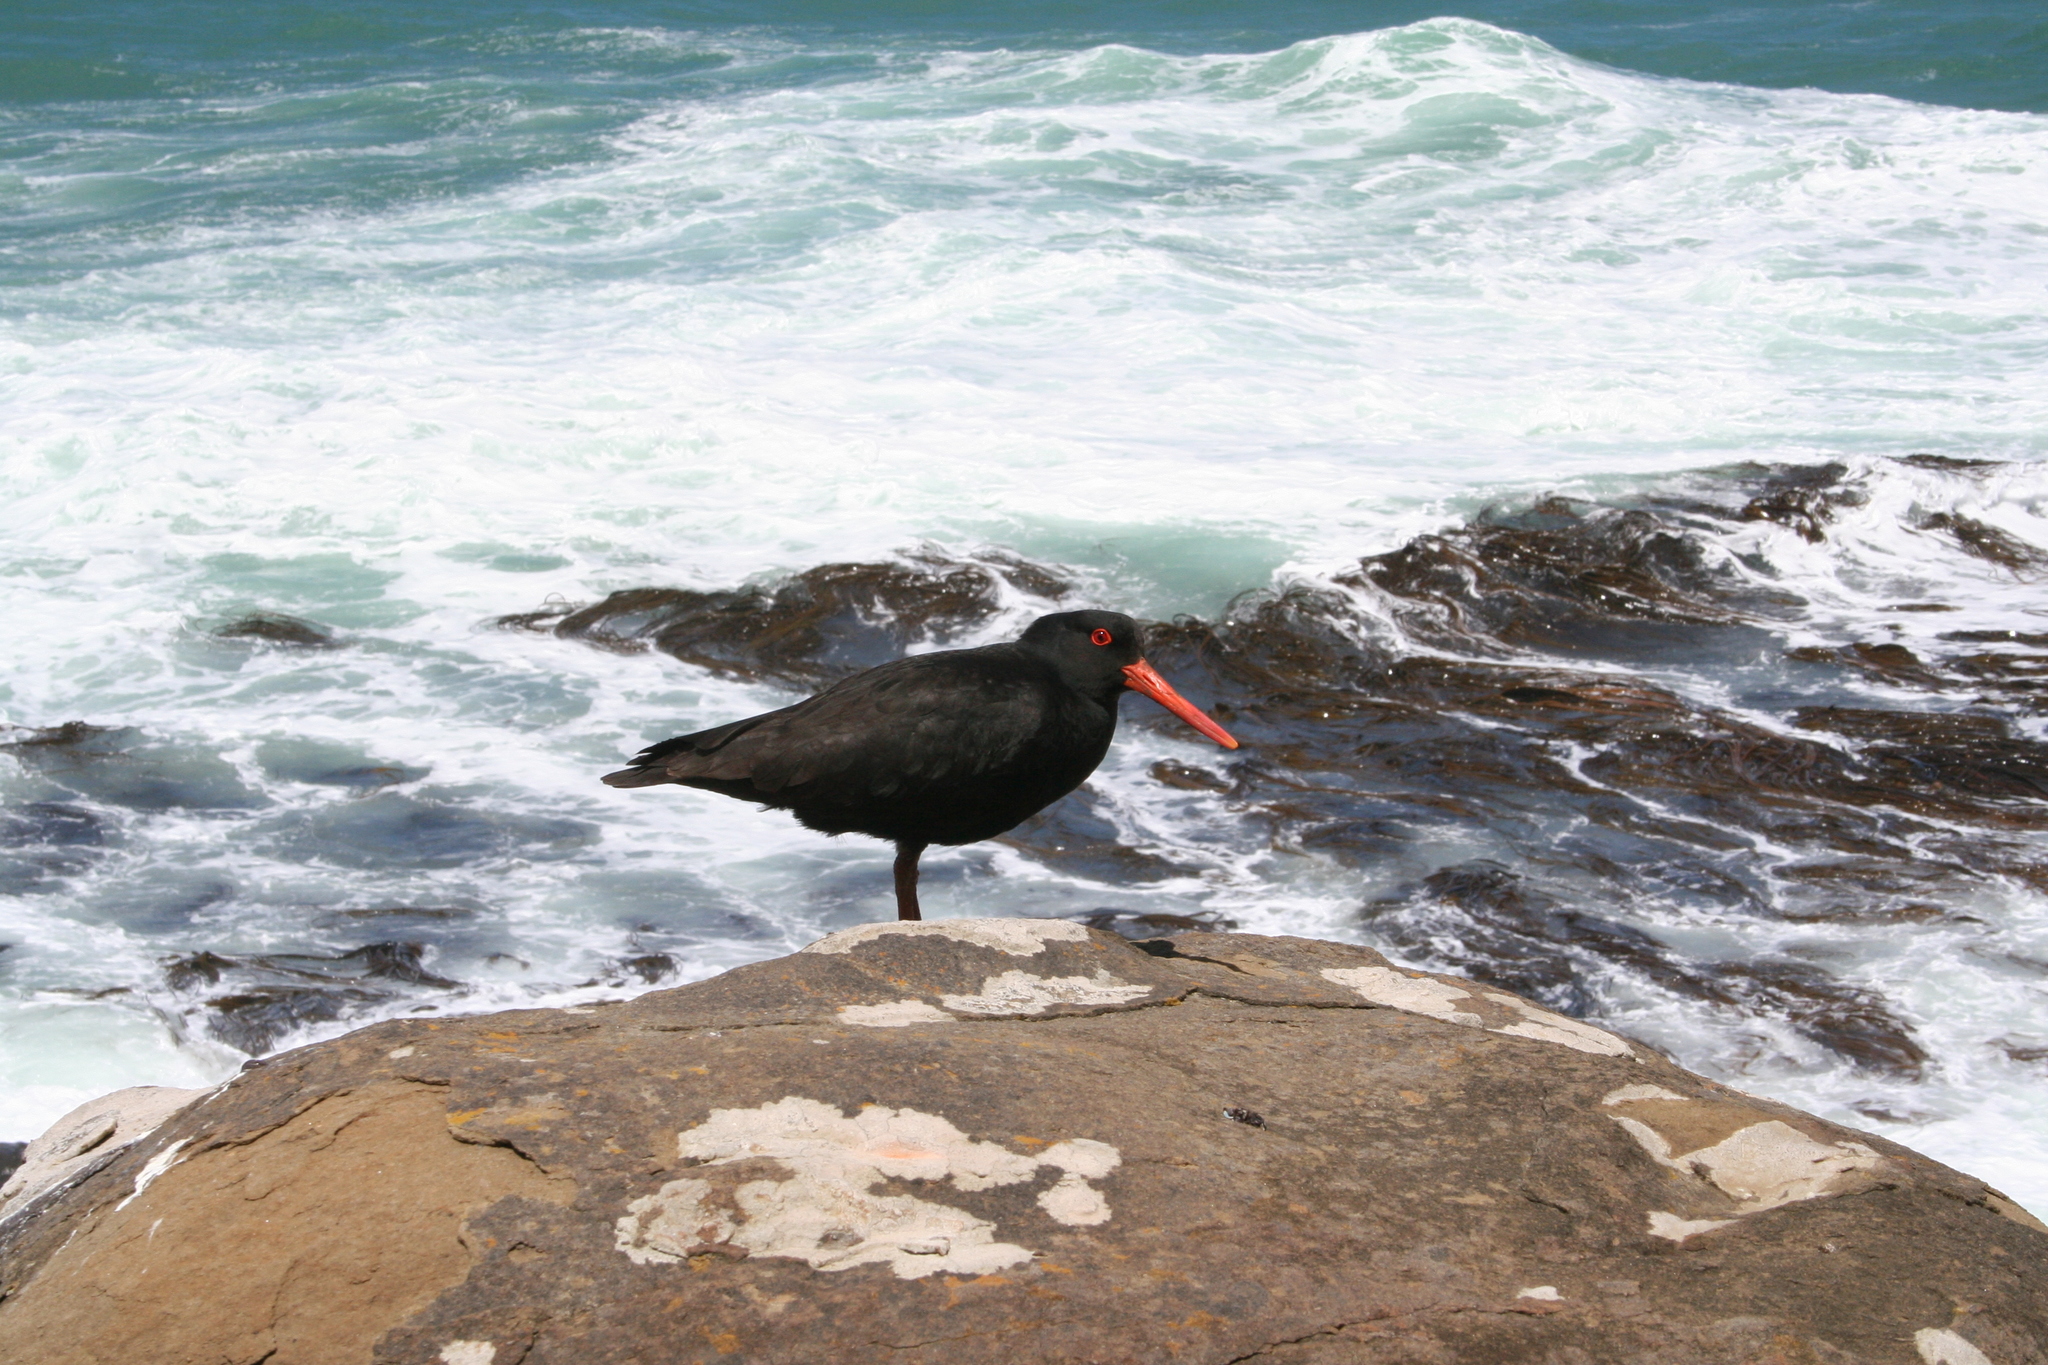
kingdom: Animalia
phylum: Chordata
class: Aves
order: Charadriiformes
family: Haematopodidae
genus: Haematopus
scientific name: Haematopus unicolor
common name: Variable oystercatcher
